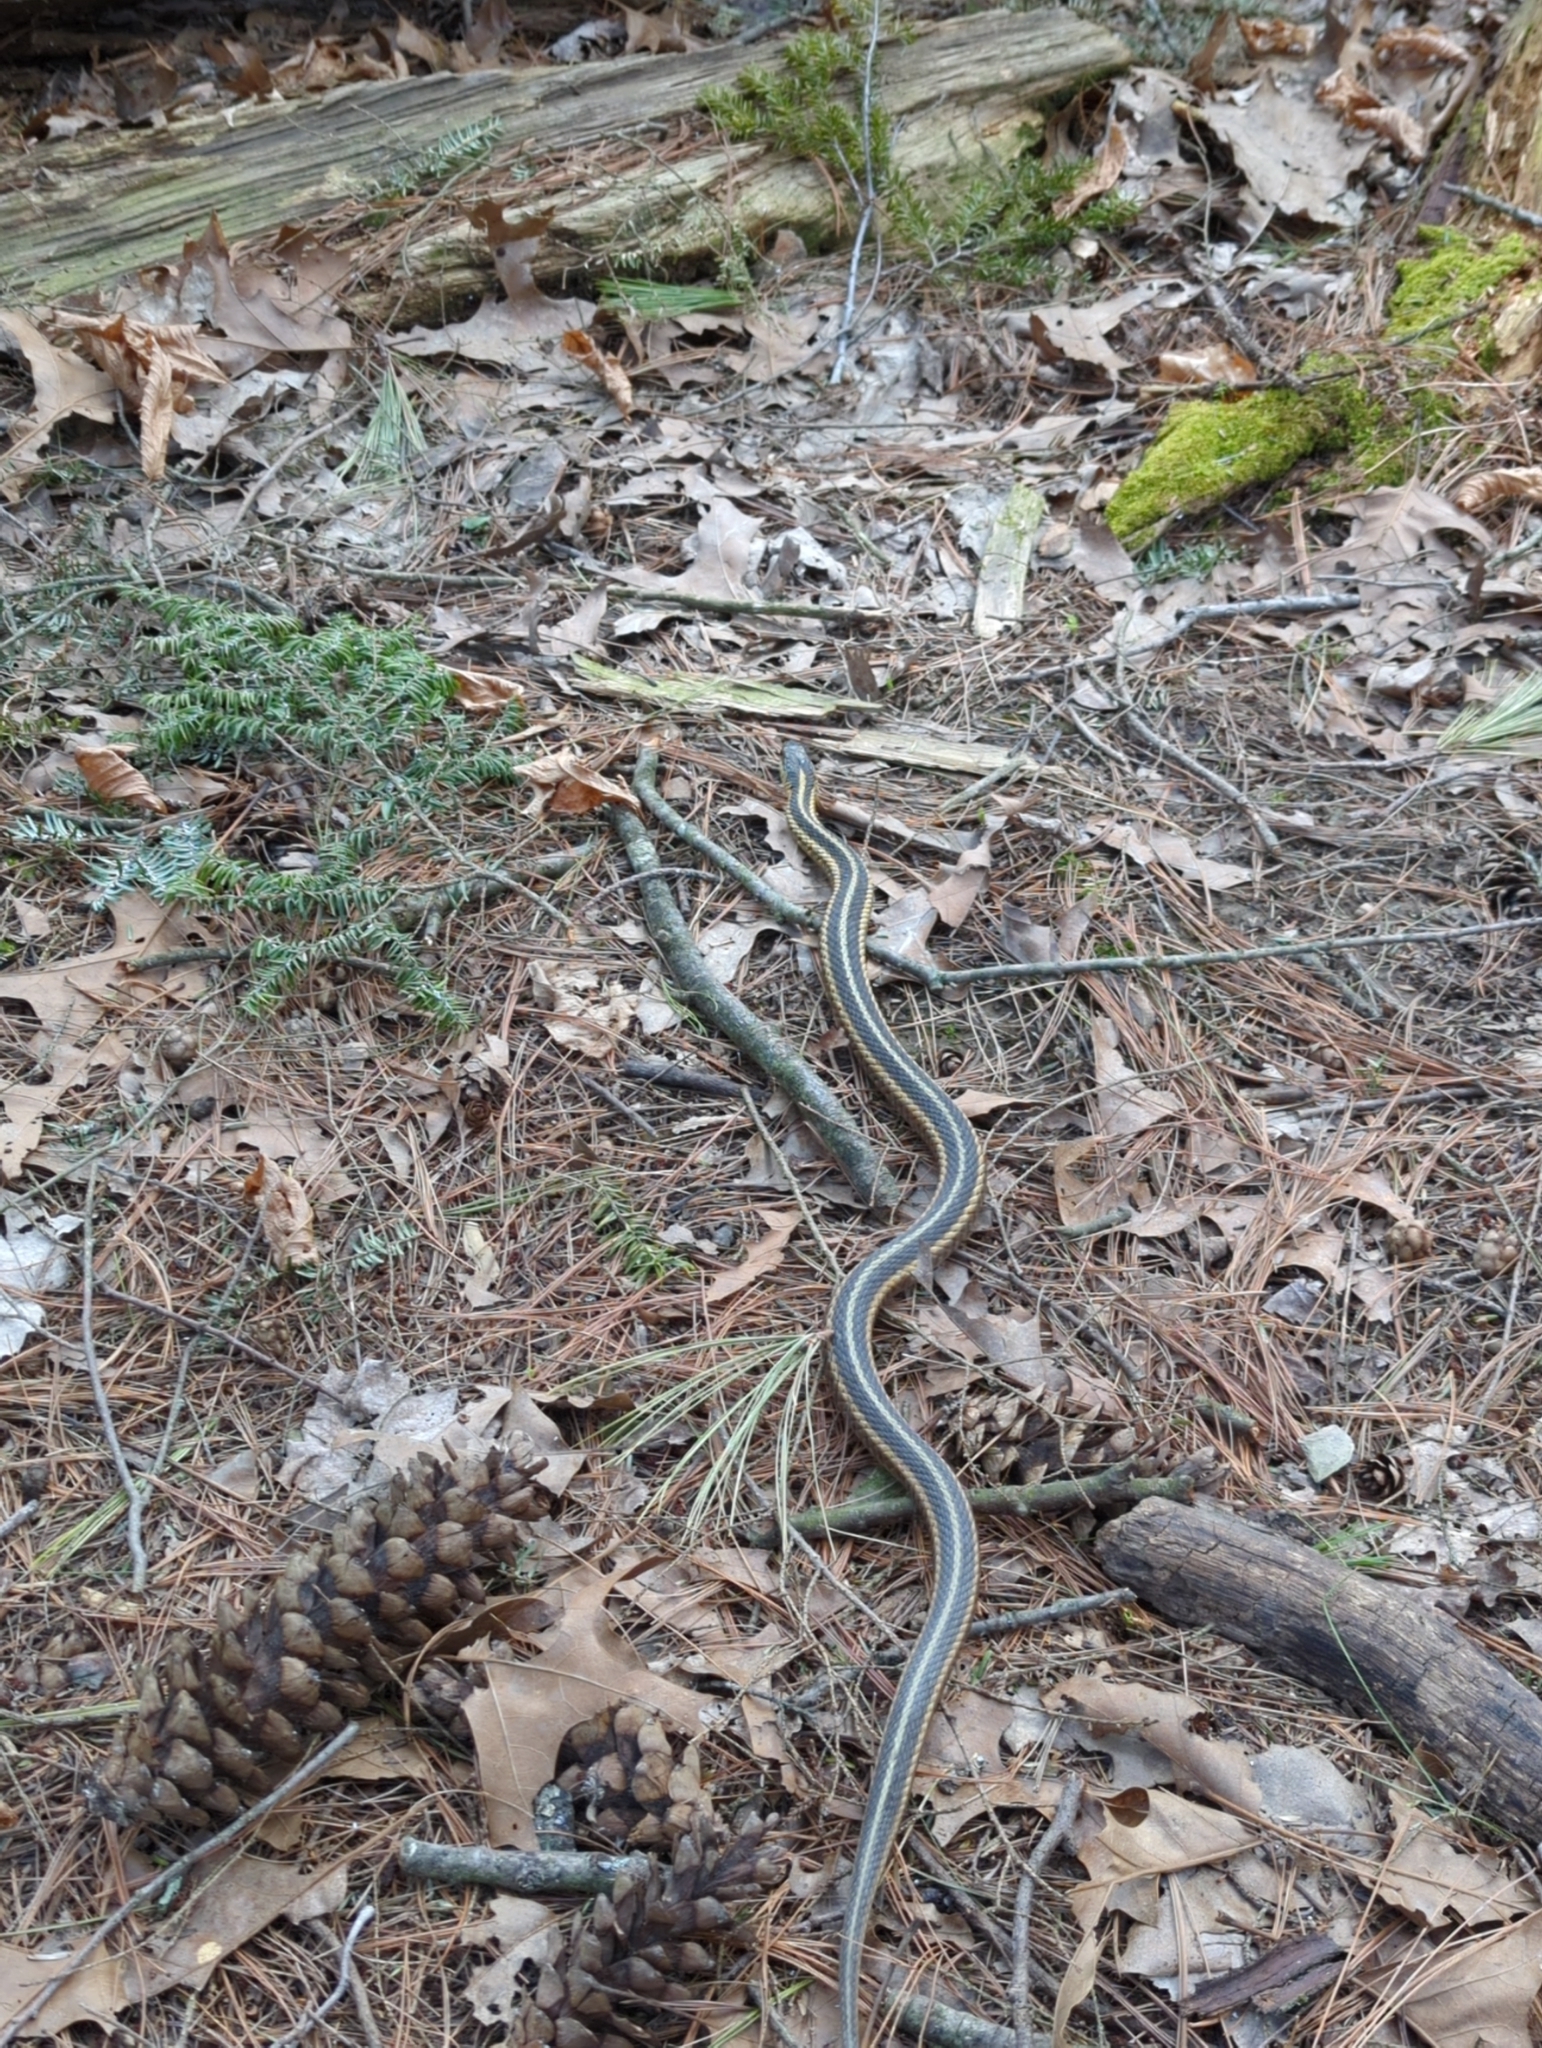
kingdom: Animalia
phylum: Chordata
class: Squamata
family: Colubridae
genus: Thamnophis
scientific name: Thamnophis sirtalis
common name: Common garter snake
